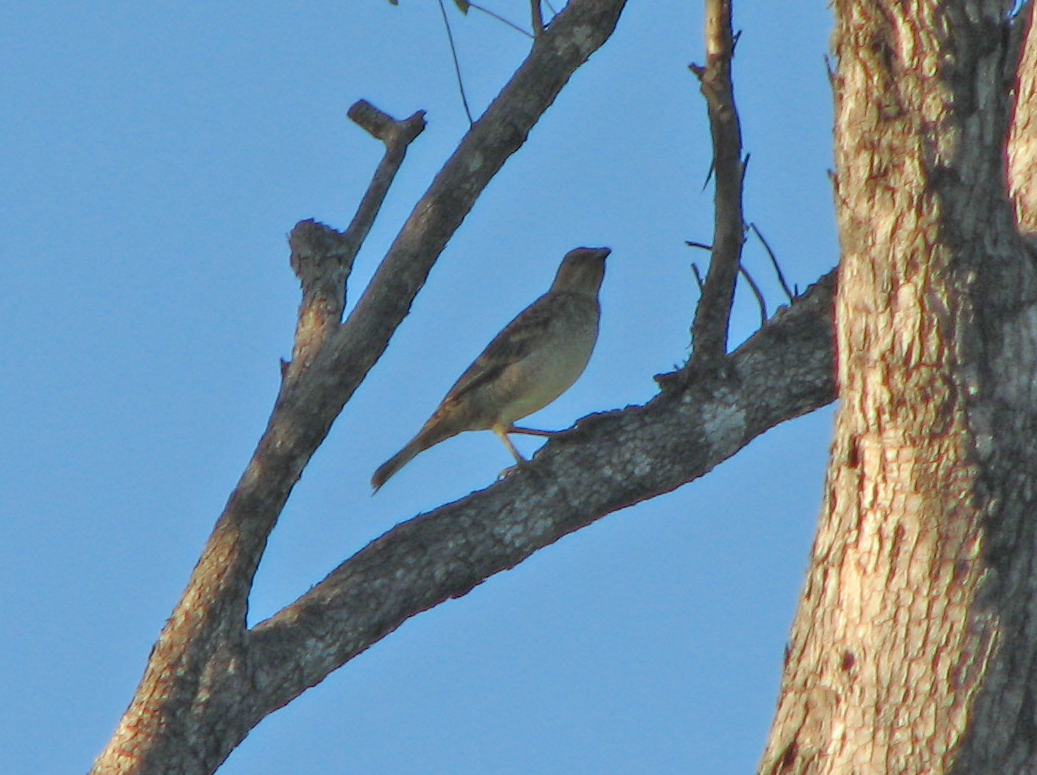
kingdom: Animalia
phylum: Chordata
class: Aves
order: Passeriformes
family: Ptilonorhynchidae
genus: Chlamydera
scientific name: Chlamydera maculata
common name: Spotted bowerbird
